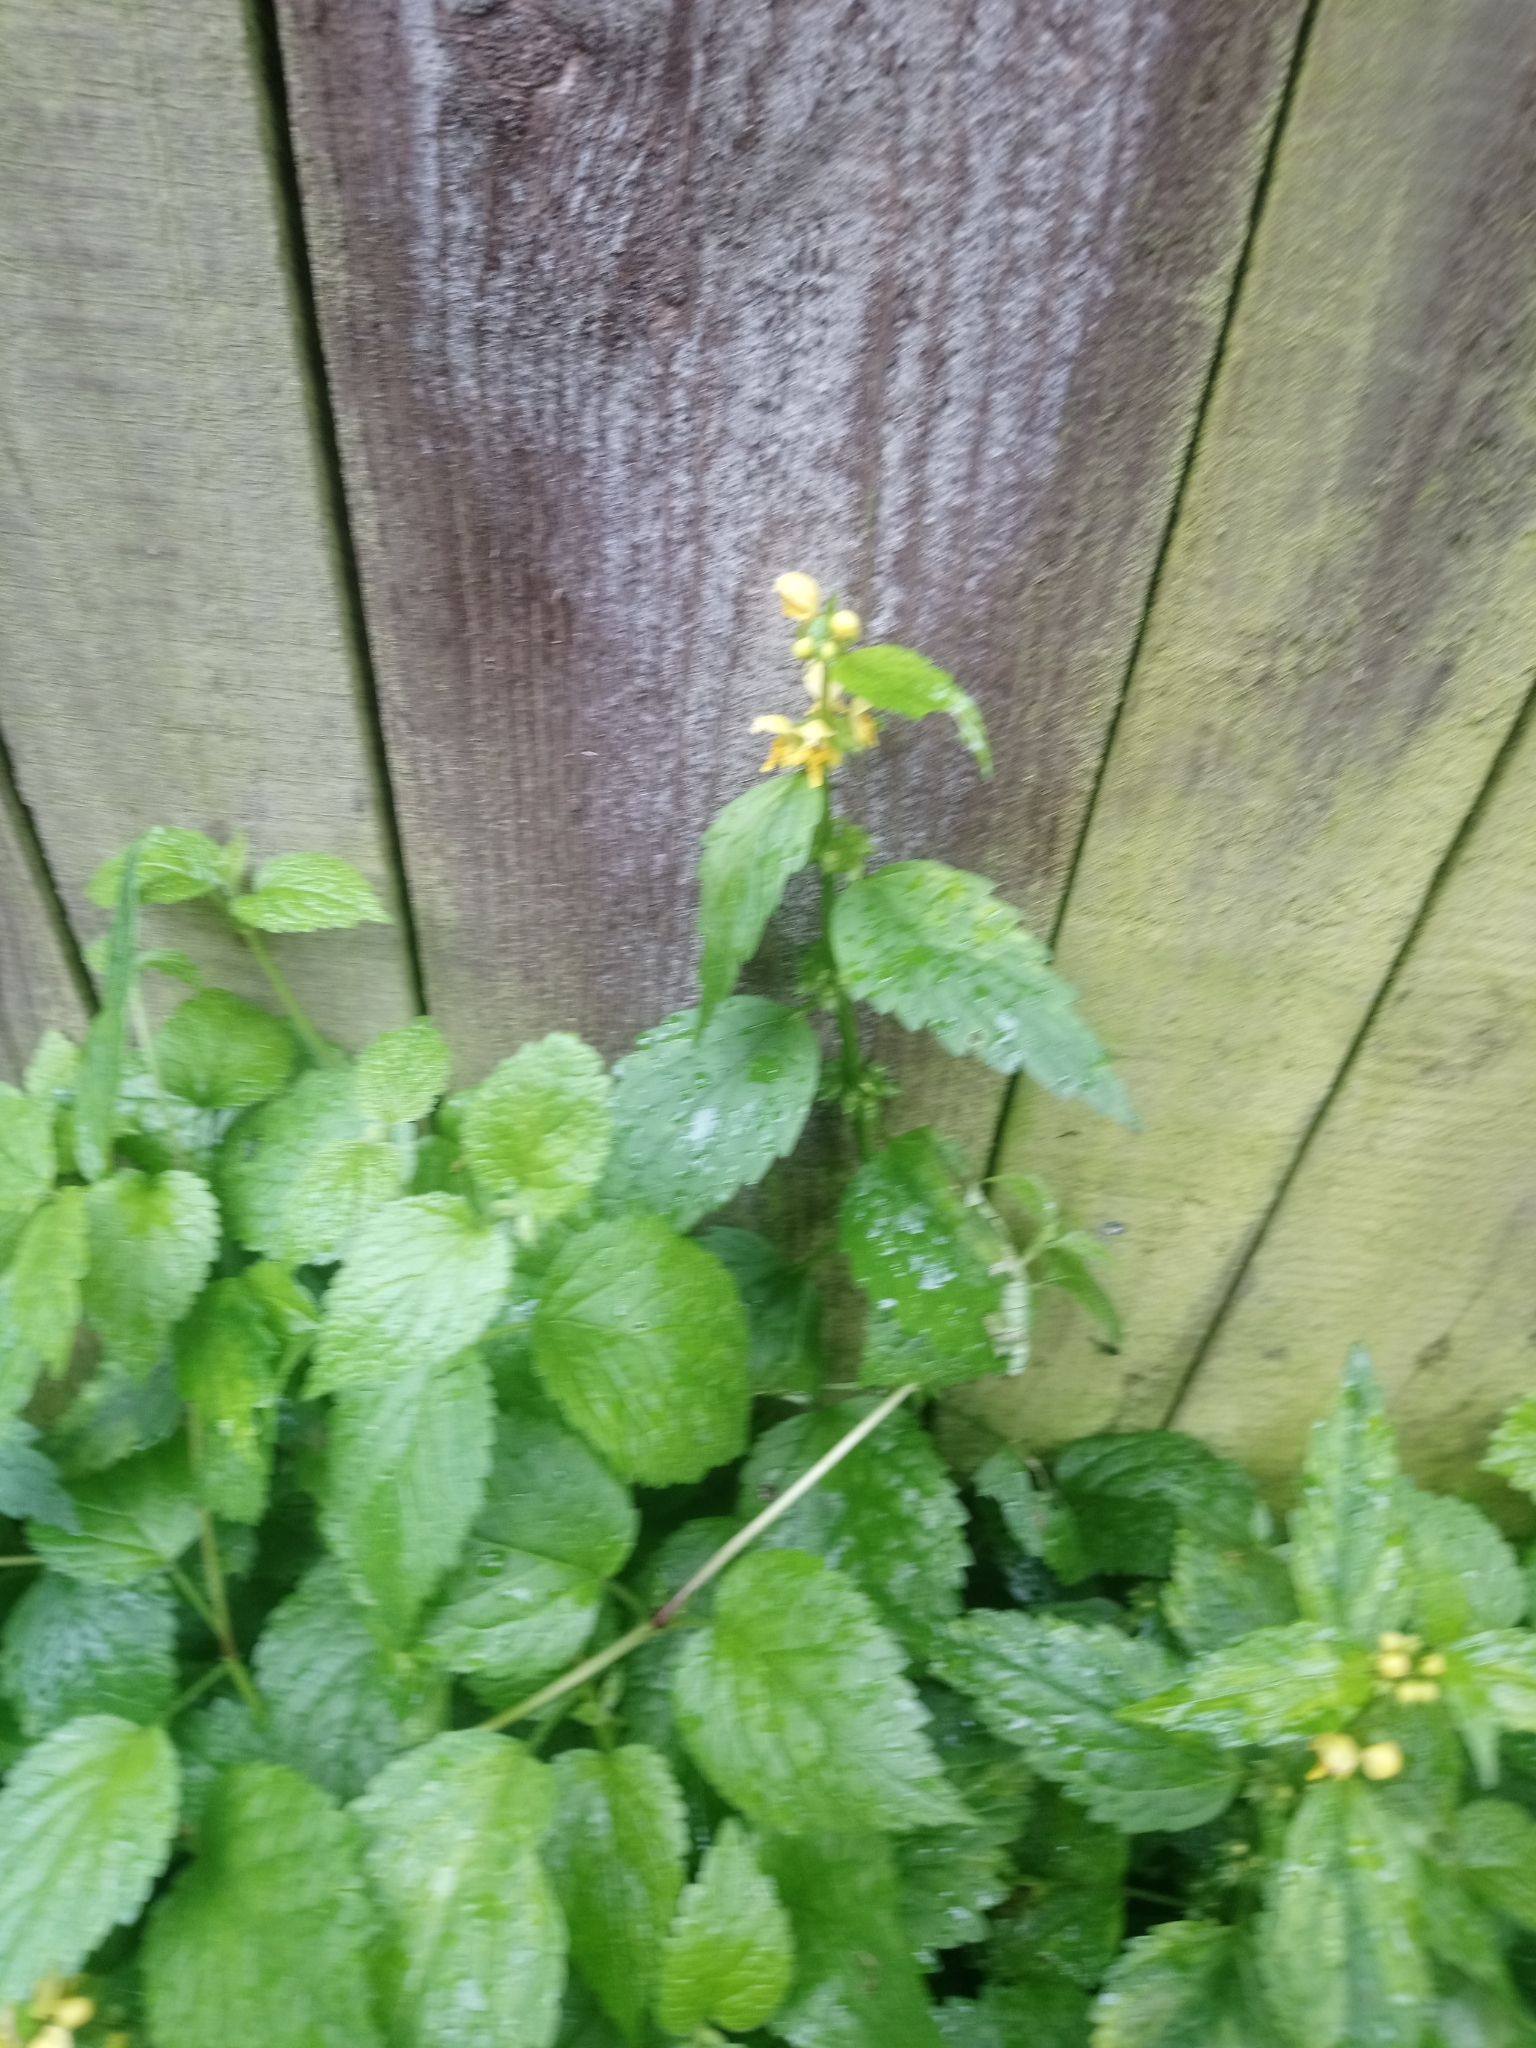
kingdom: Plantae
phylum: Tracheophyta
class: Magnoliopsida
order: Lamiales
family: Lamiaceae
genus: Lamium
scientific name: Lamium galeobdolon
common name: Yellow archangel
